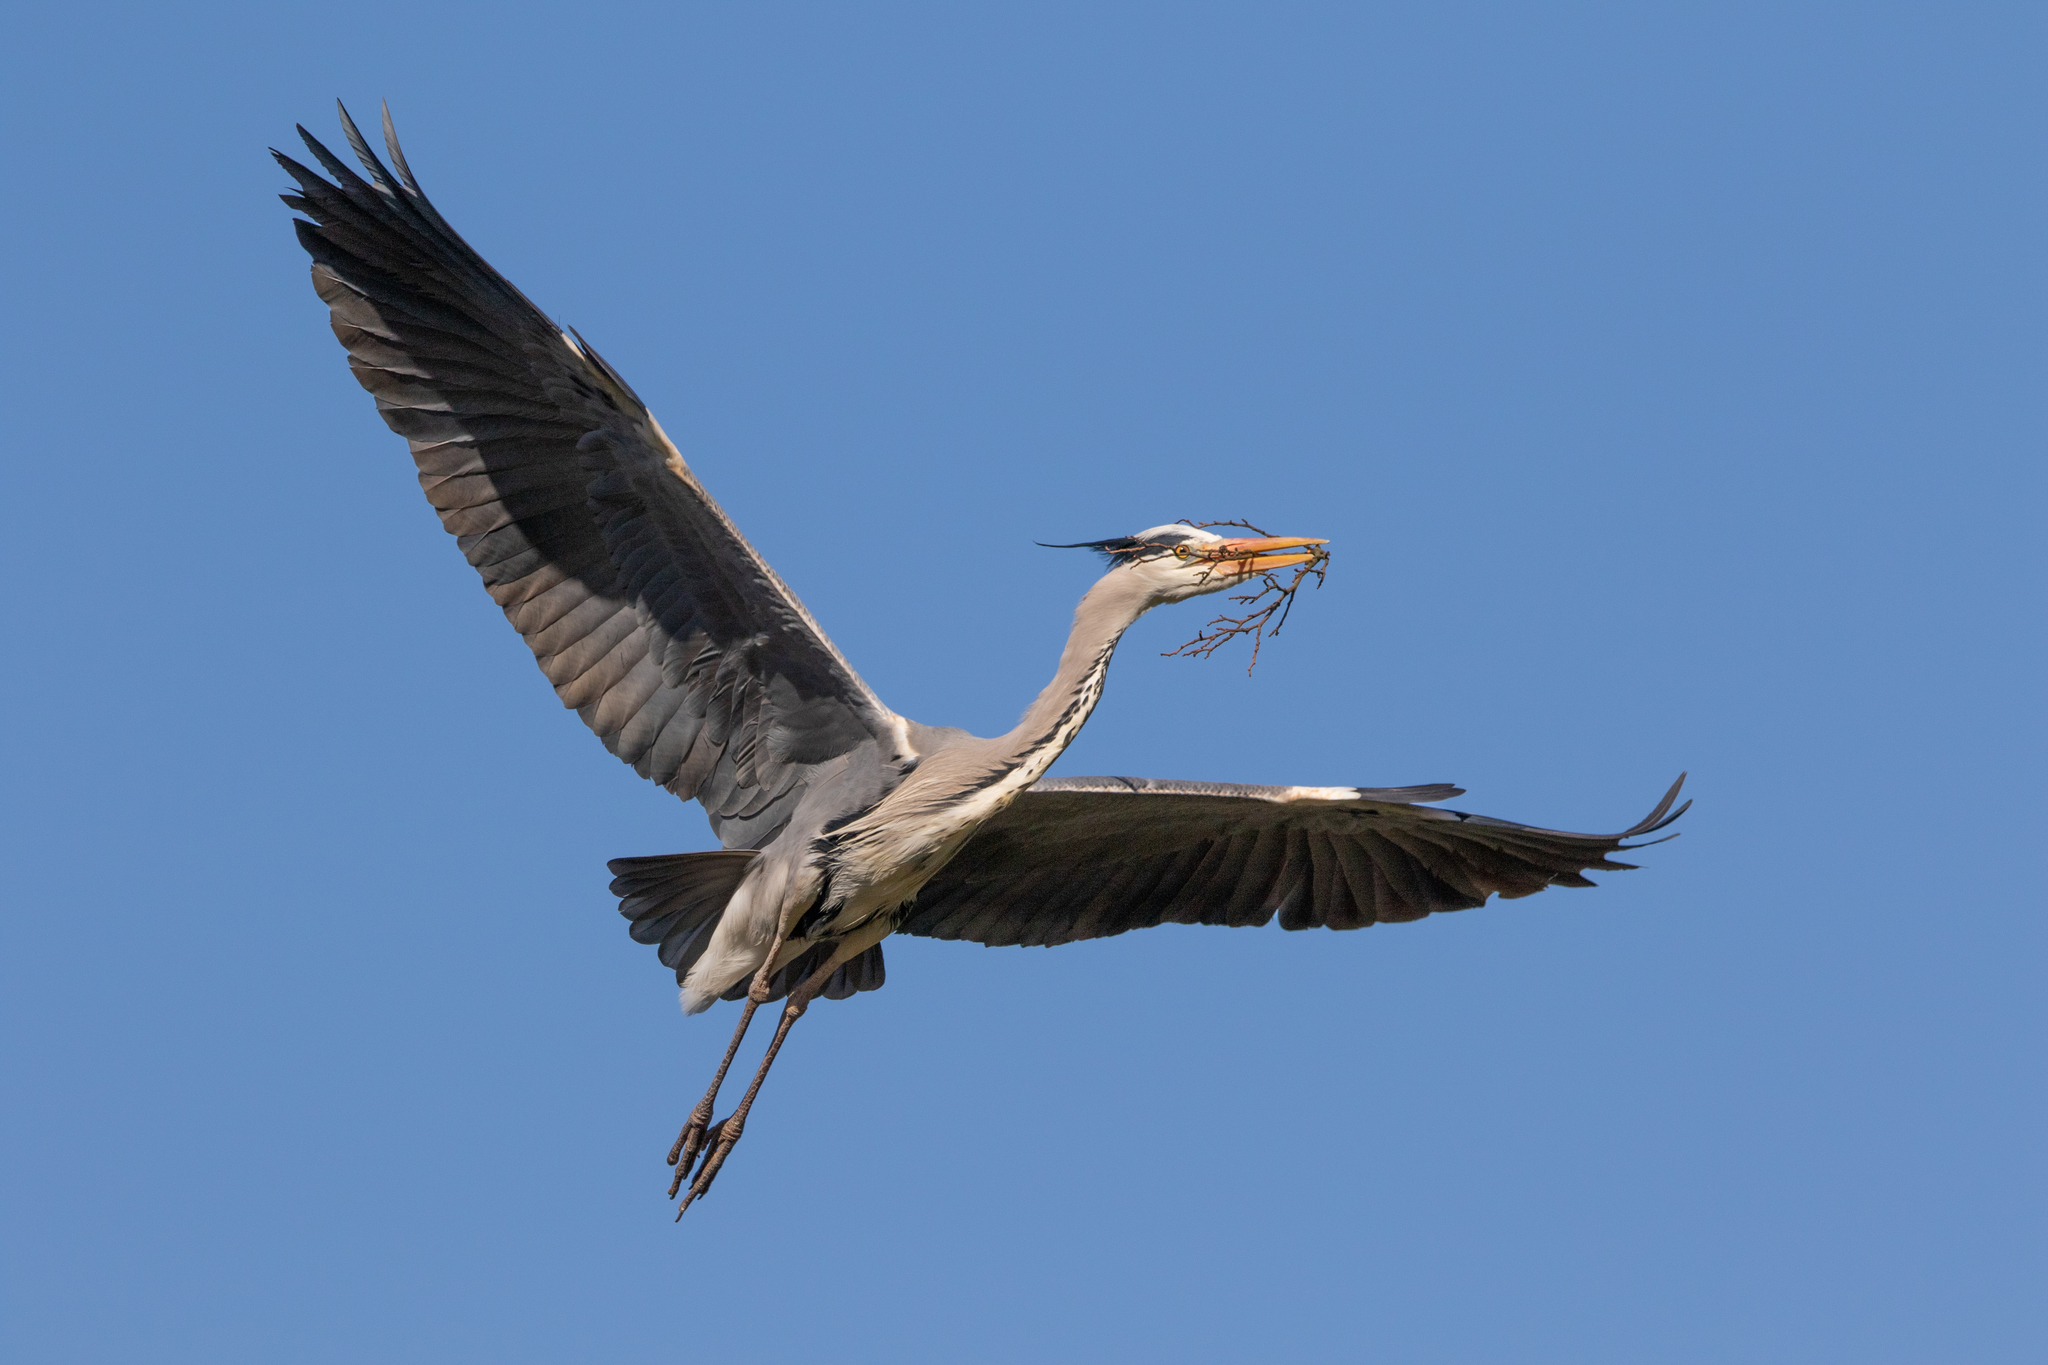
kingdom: Animalia
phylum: Chordata
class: Aves
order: Pelecaniformes
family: Ardeidae
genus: Ardea
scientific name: Ardea cinerea
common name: Grey heron
